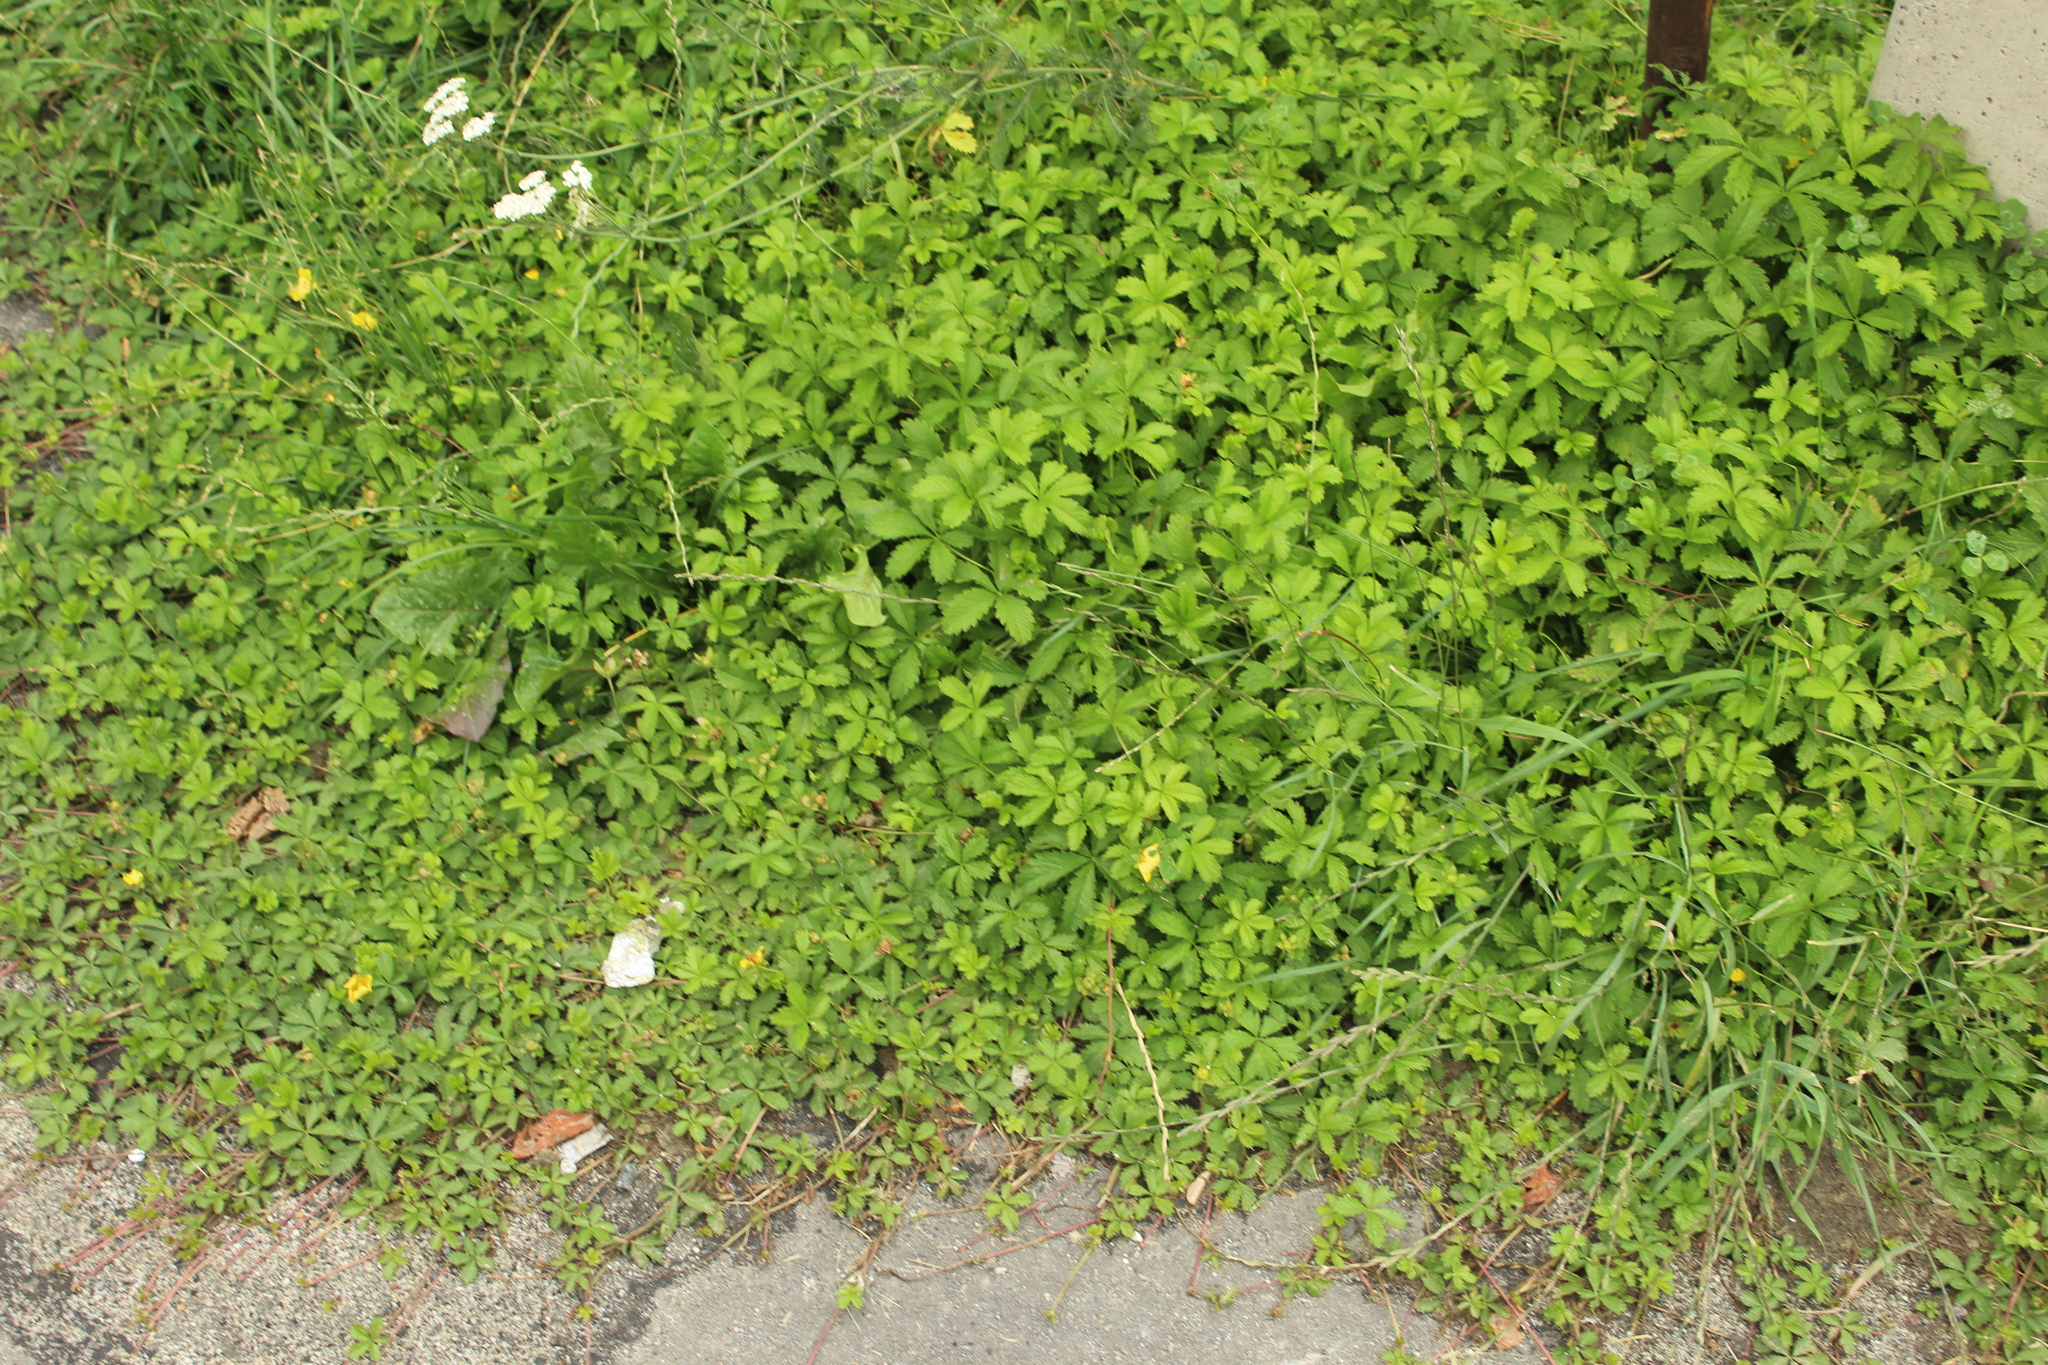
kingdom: Plantae
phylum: Tracheophyta
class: Magnoliopsida
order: Rosales
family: Rosaceae
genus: Potentilla
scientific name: Potentilla reptans
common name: Creeping cinquefoil
